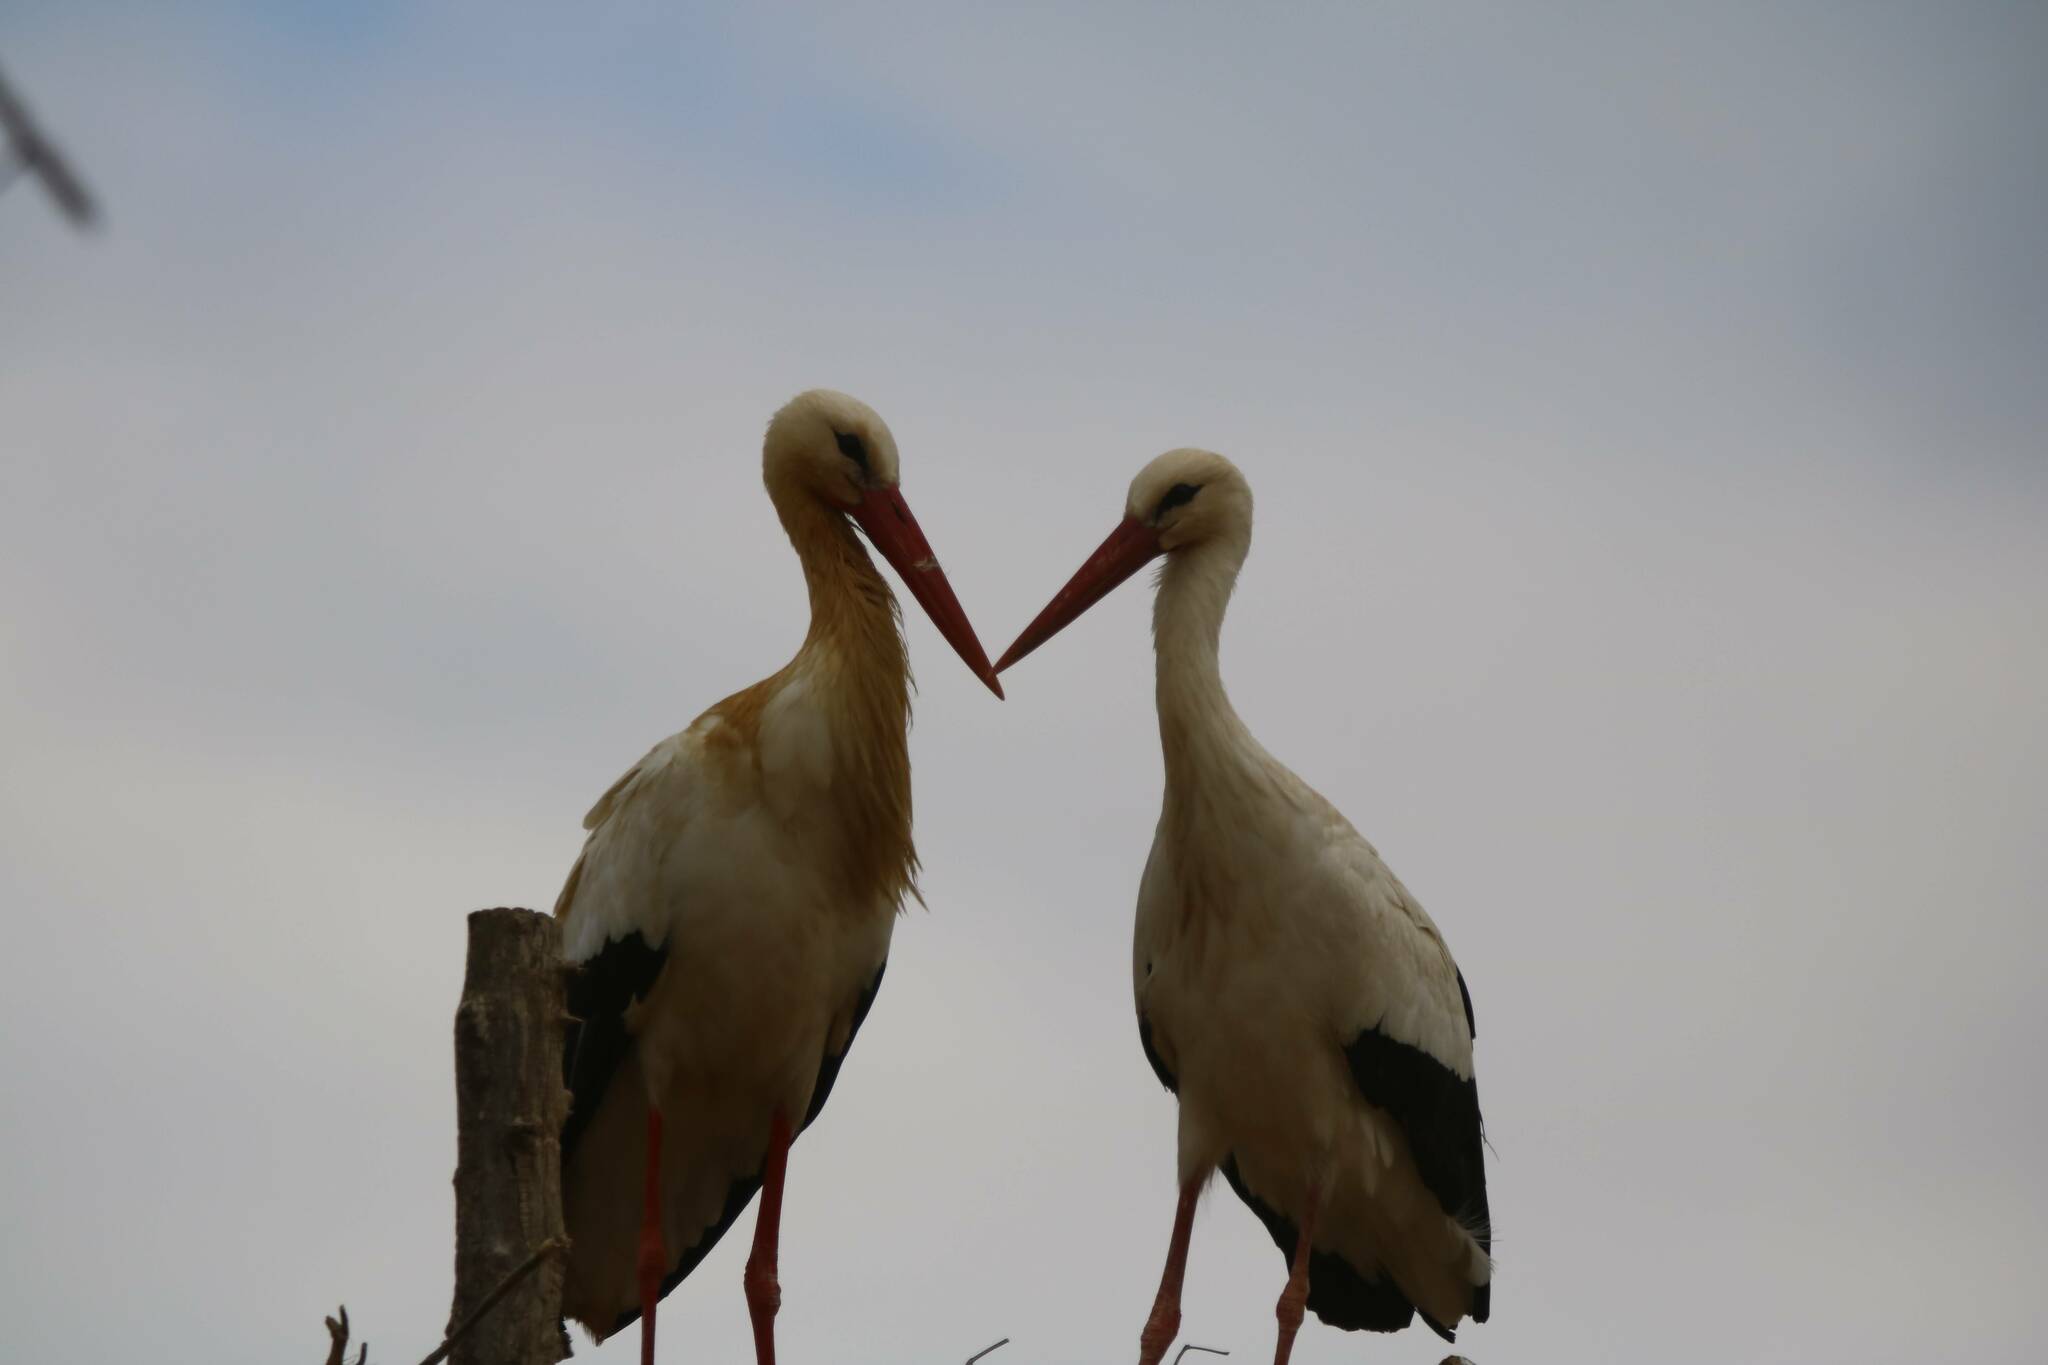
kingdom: Animalia
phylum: Chordata
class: Aves
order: Ciconiiformes
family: Ciconiidae
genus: Ciconia
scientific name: Ciconia ciconia
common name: White stork
